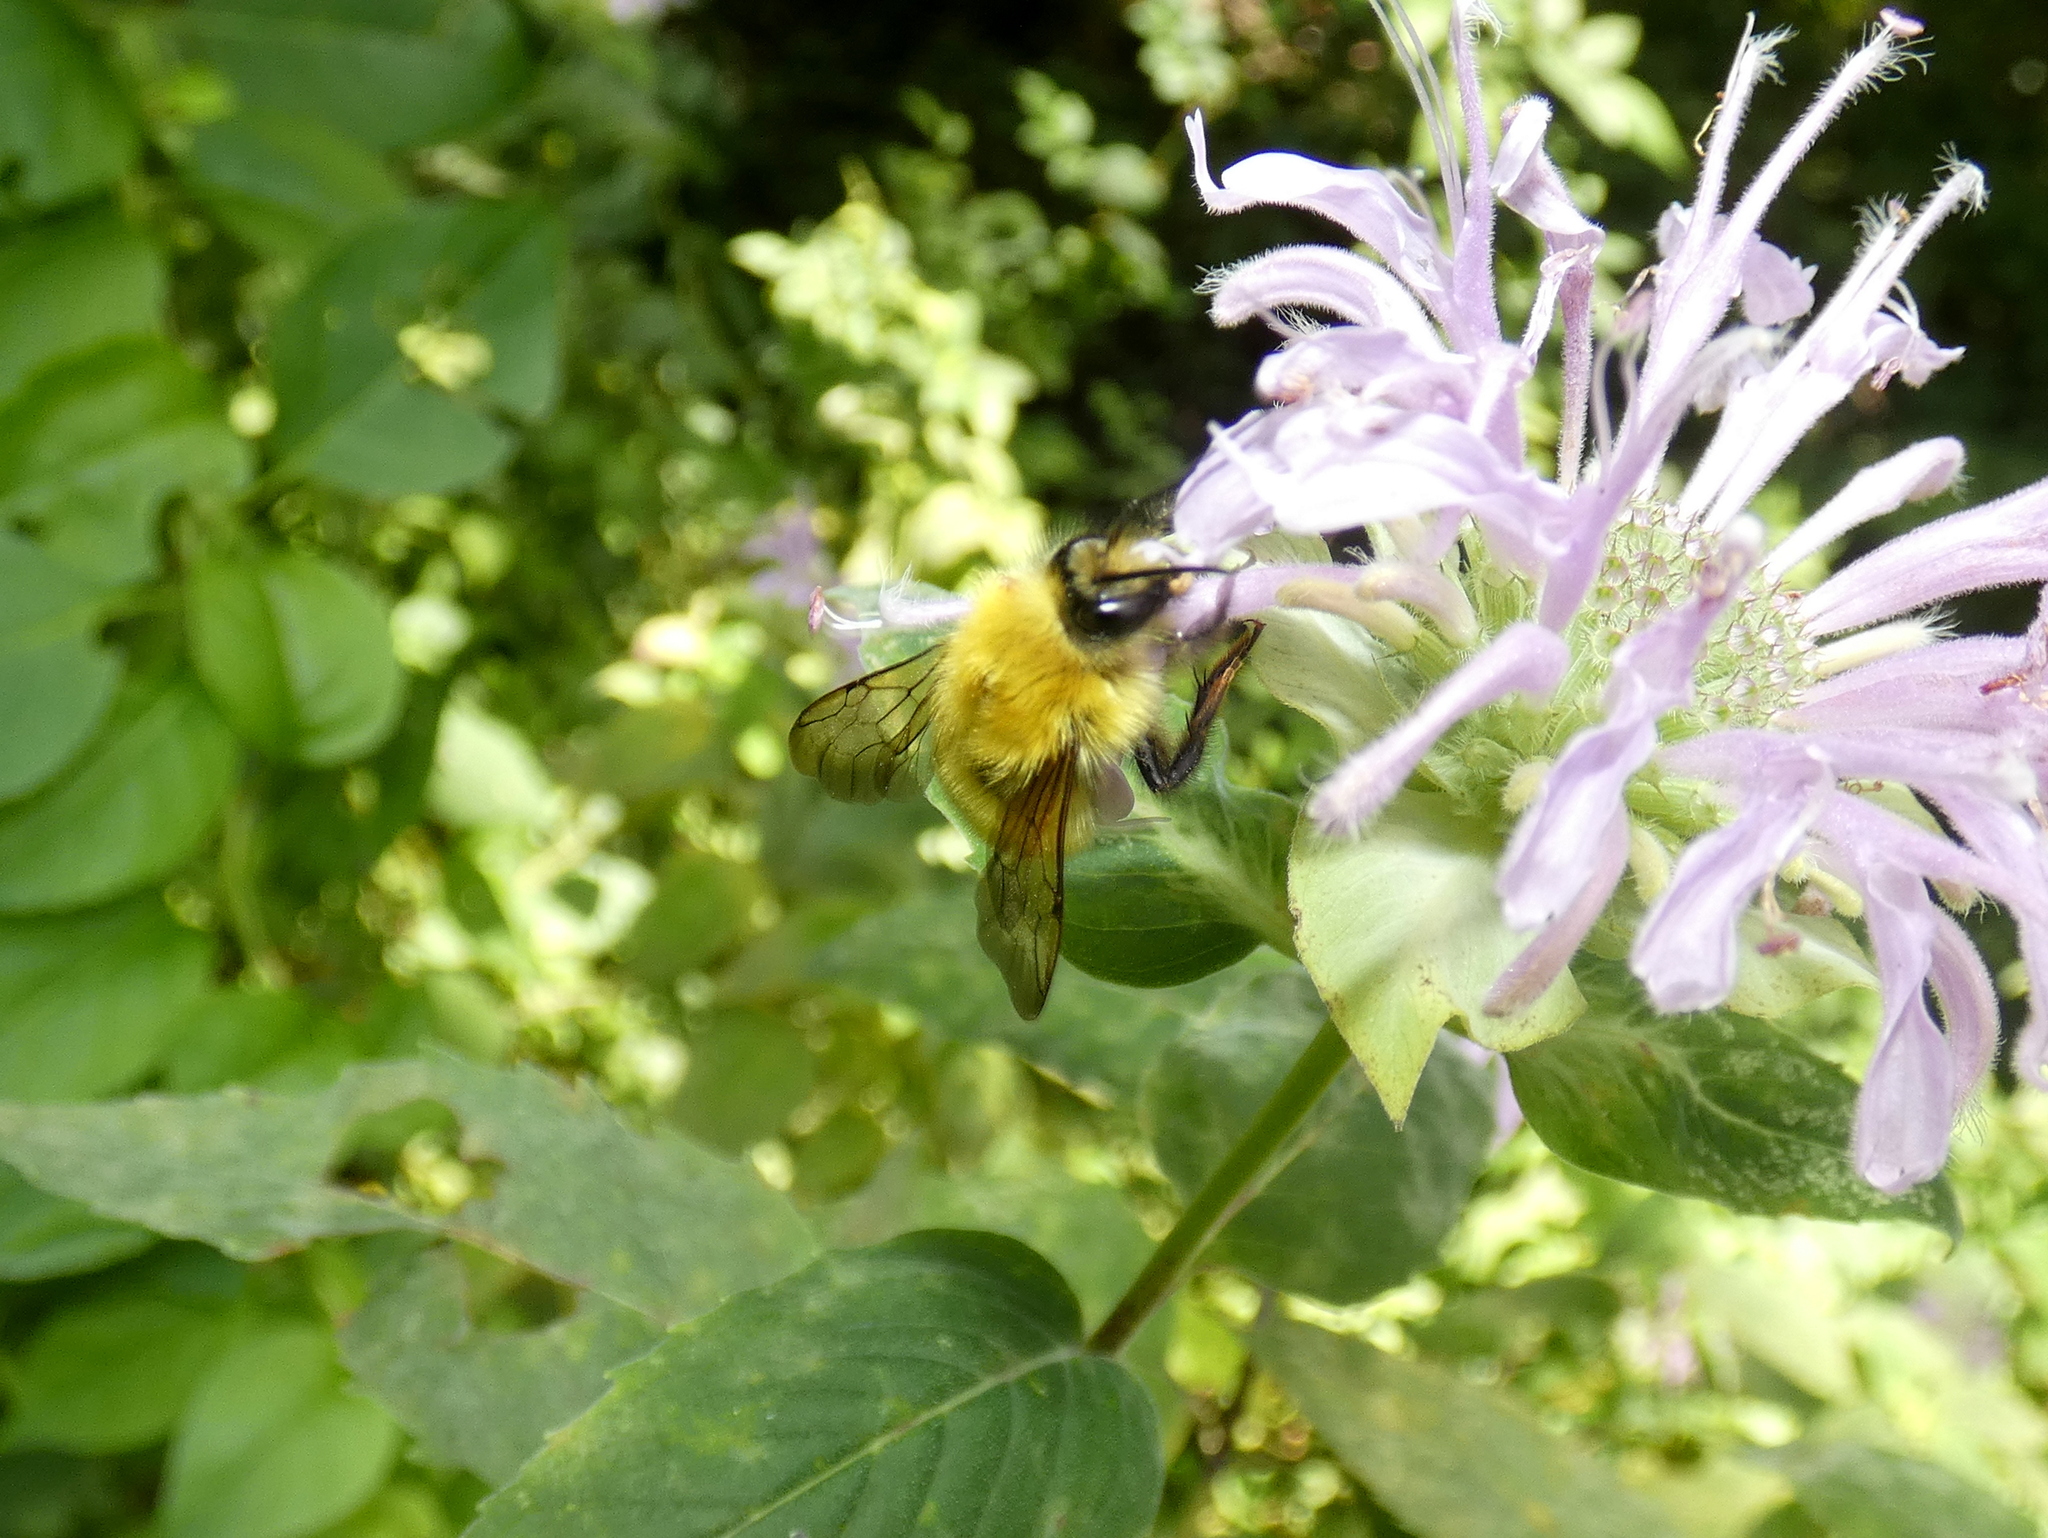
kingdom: Animalia
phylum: Arthropoda
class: Insecta
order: Hymenoptera
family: Apidae
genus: Bombus
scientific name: Bombus perplexus
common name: Confusing bumble bee
